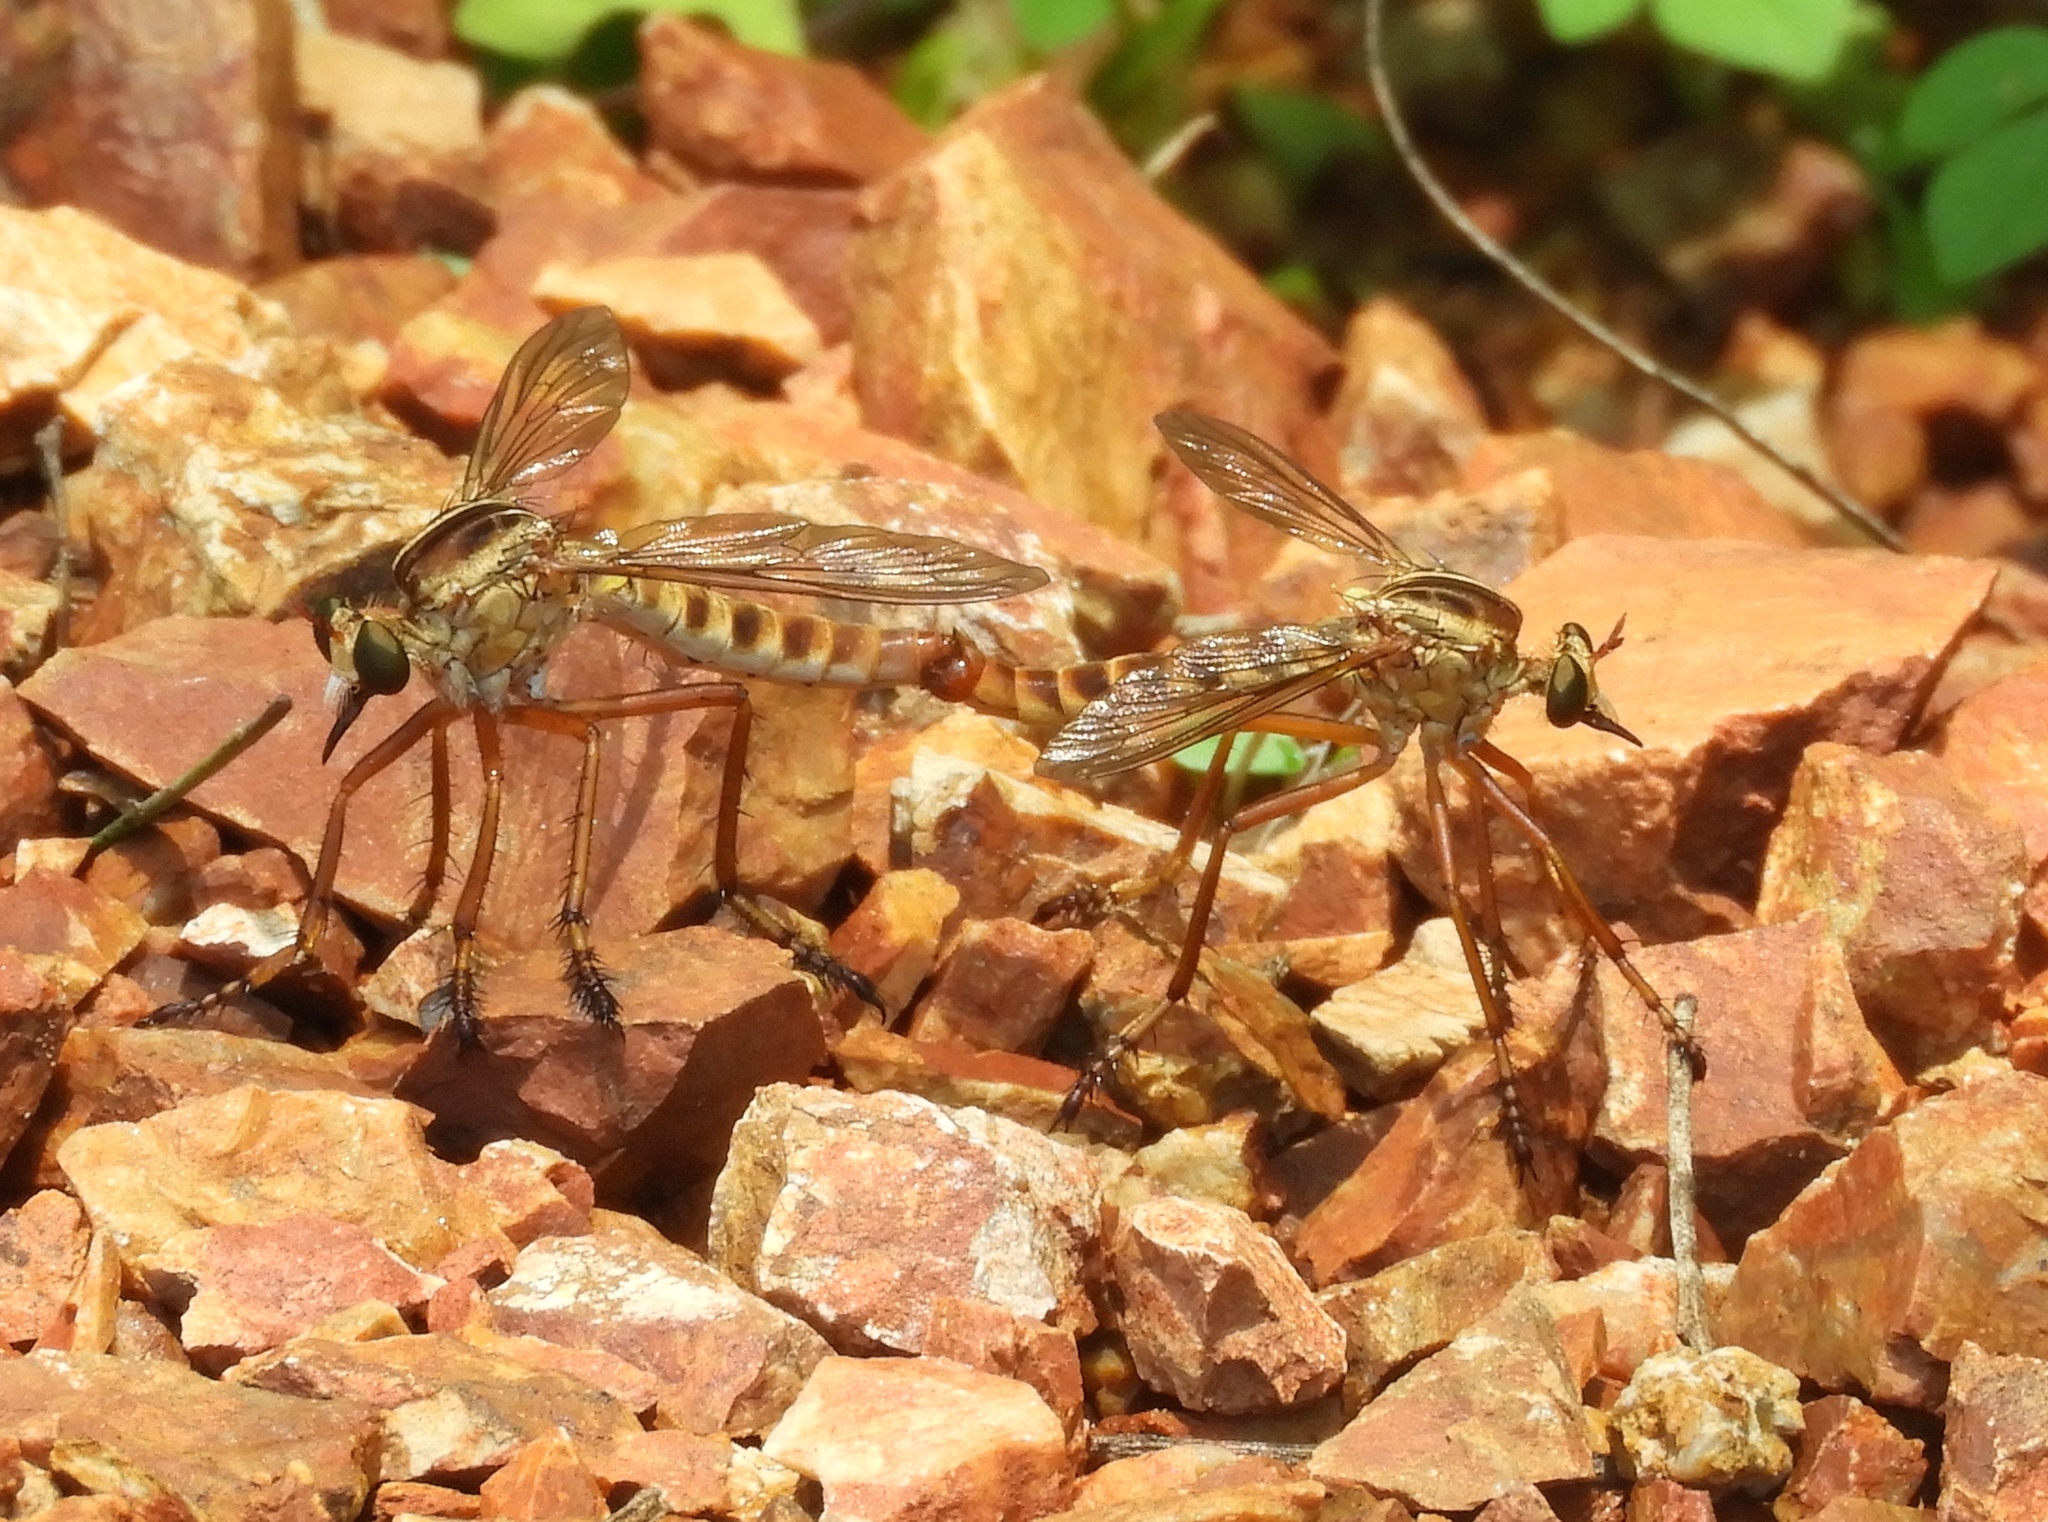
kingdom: Animalia
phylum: Arthropoda
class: Insecta
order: Diptera
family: Asilidae
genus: Diogmites
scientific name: Diogmites
